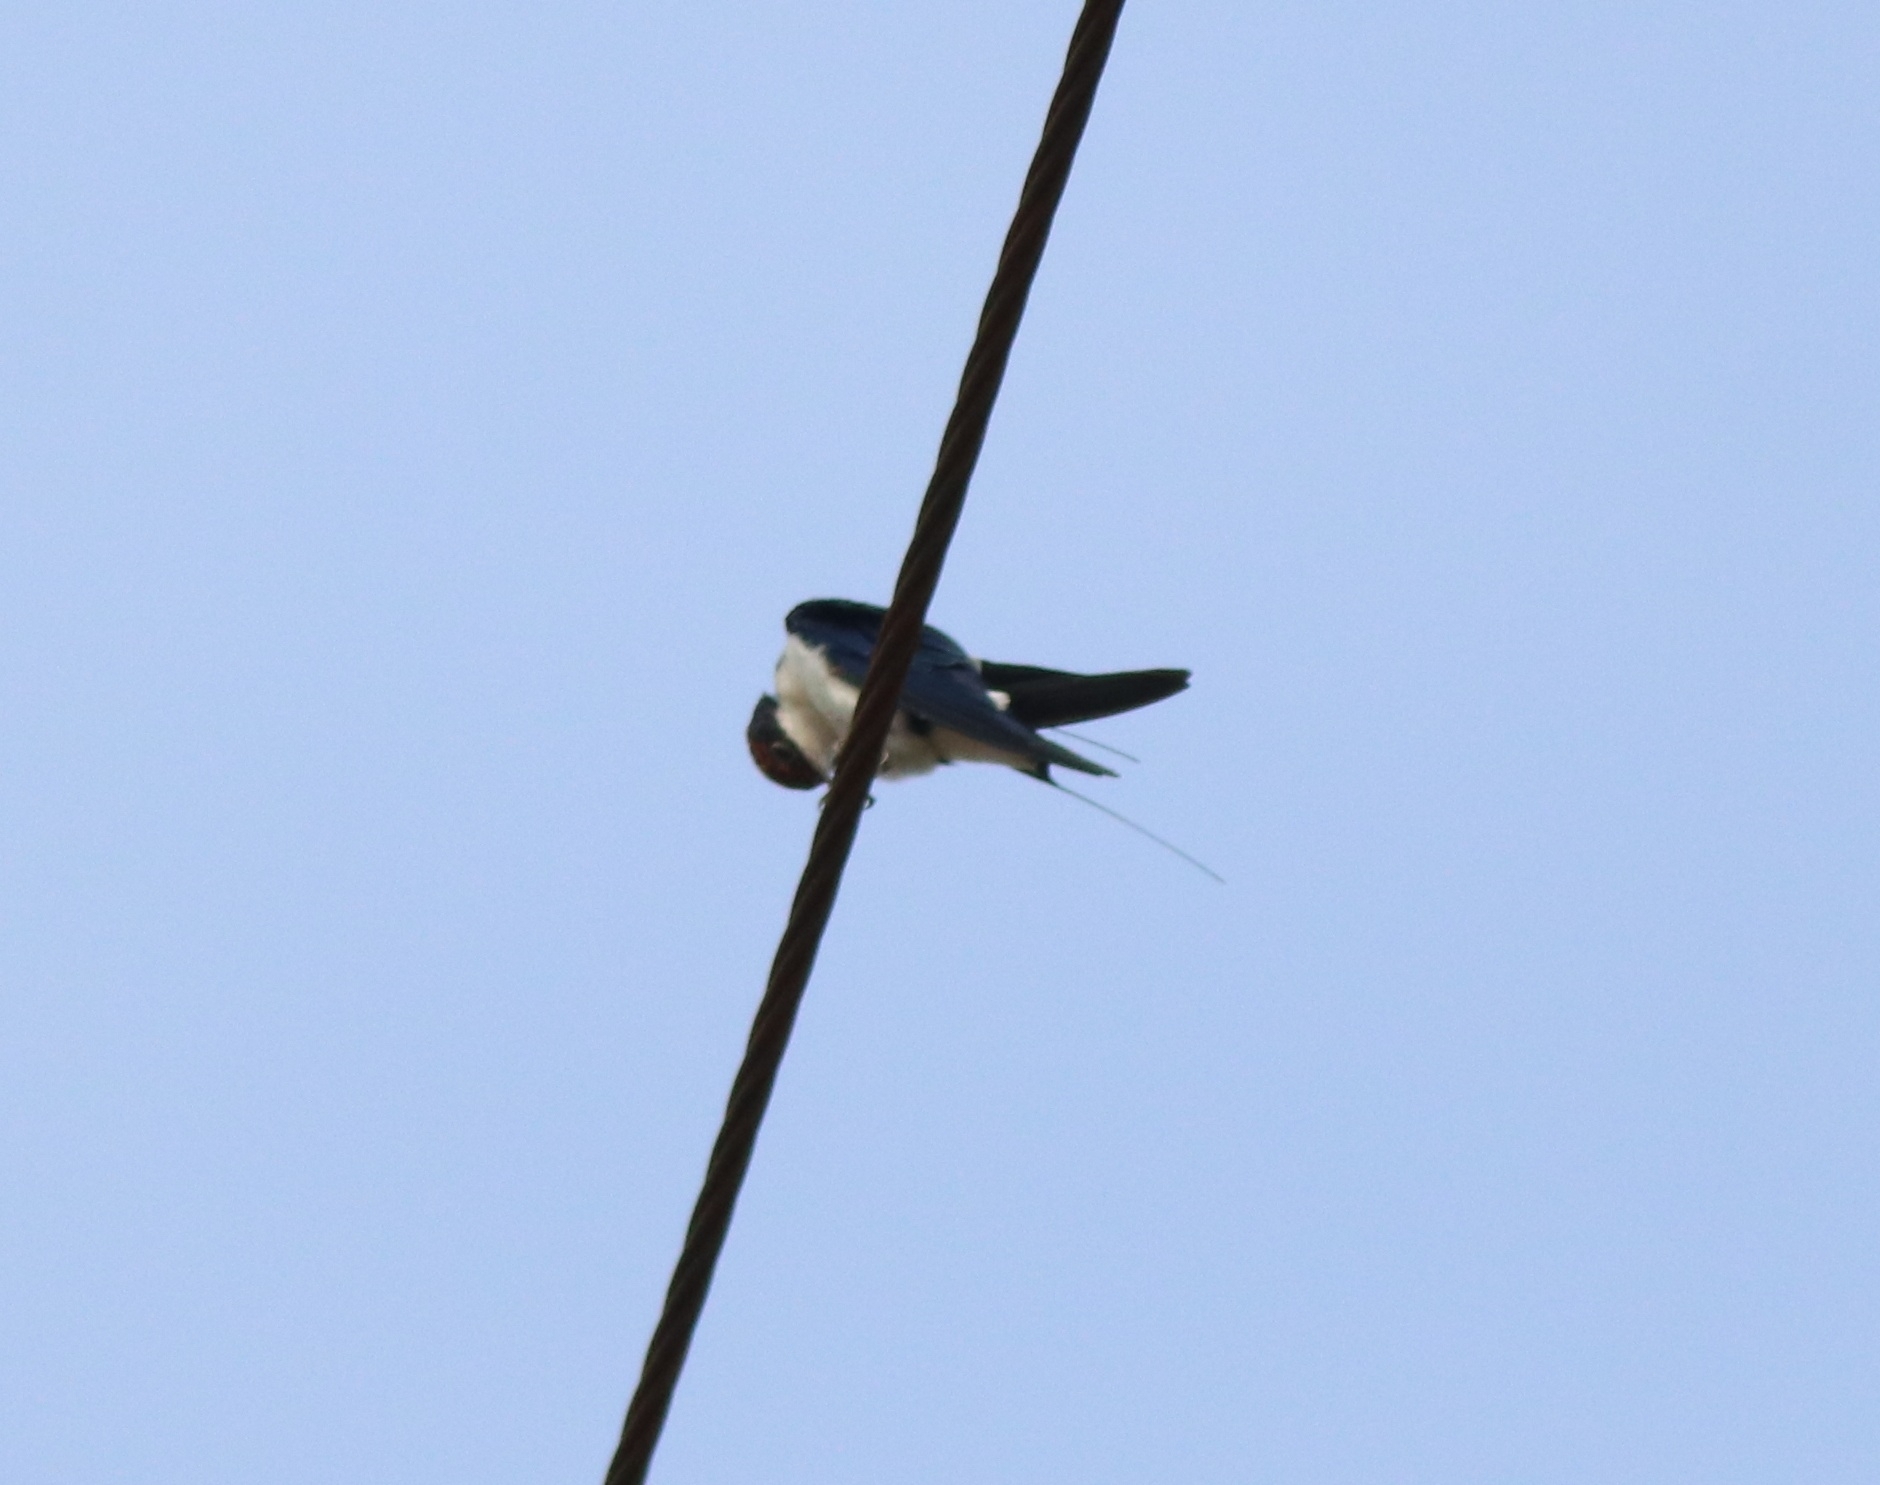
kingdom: Animalia
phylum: Chordata
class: Aves
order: Passeriformes
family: Hirundinidae
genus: Hirundo
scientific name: Hirundo smithii
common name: Wire-tailed swallow
